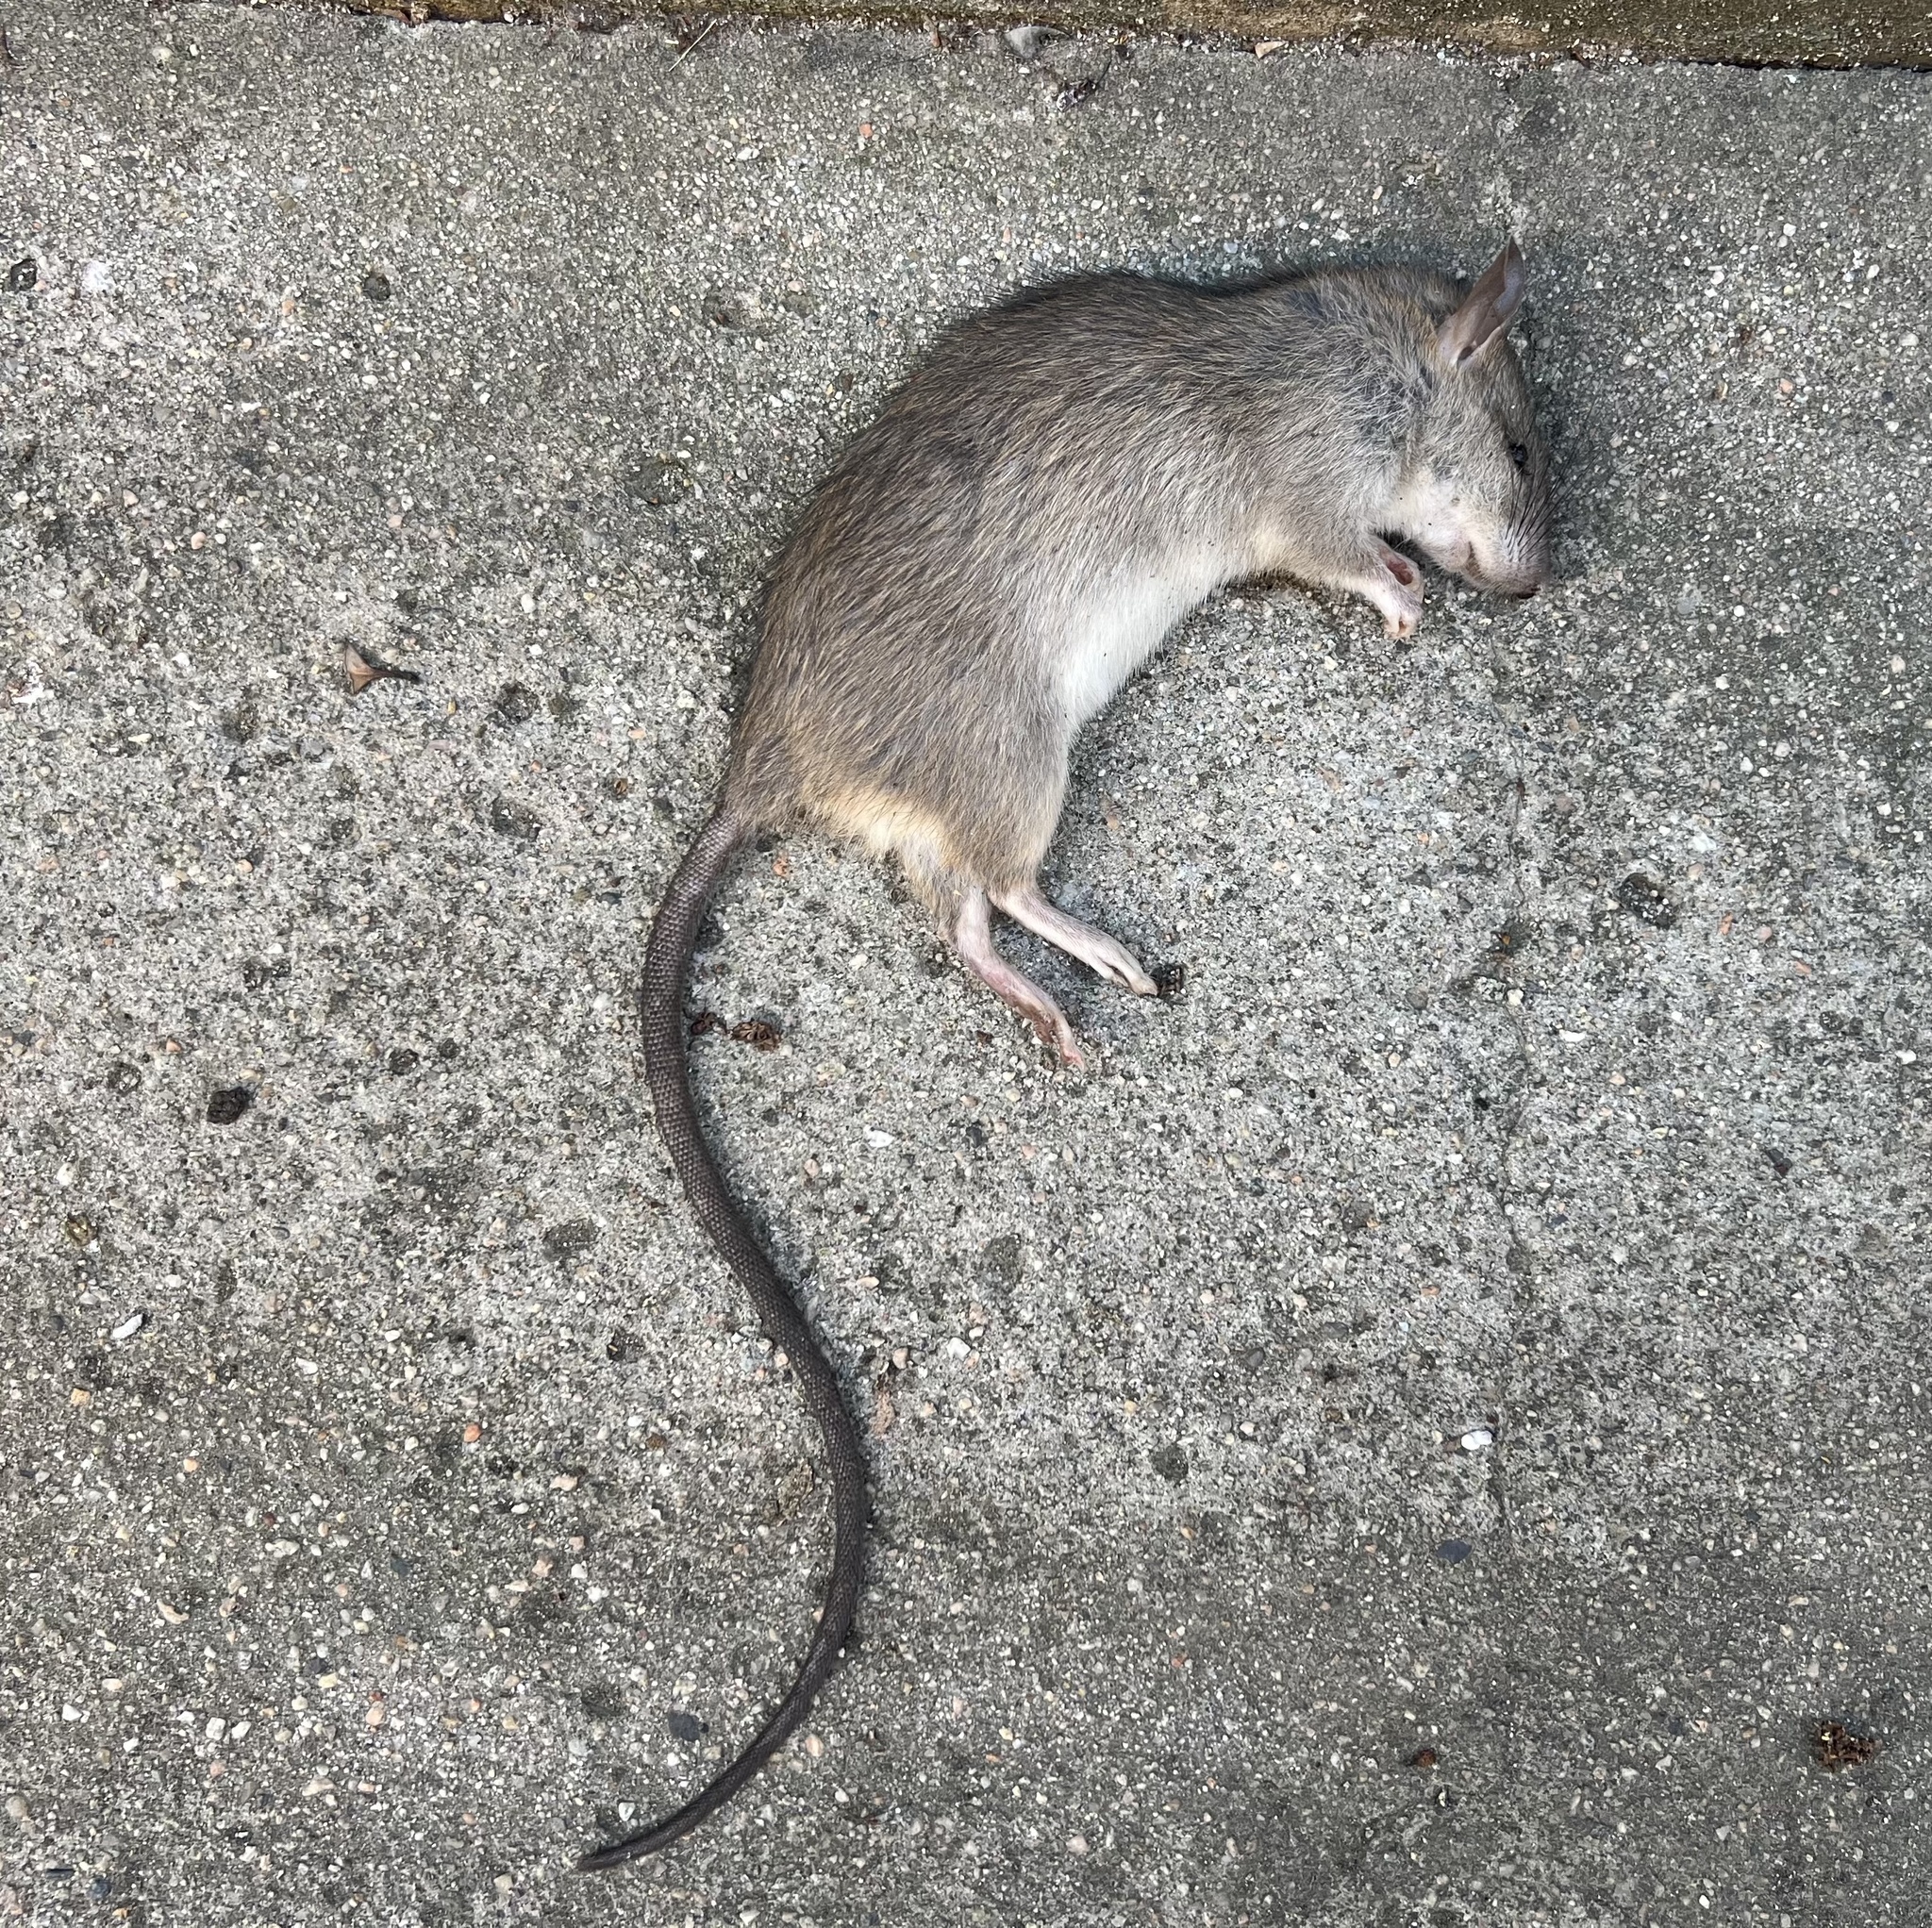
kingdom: Animalia
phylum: Chordata
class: Mammalia
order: Rodentia
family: Muridae
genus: Rattus
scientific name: Rattus rattus
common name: Black rat
